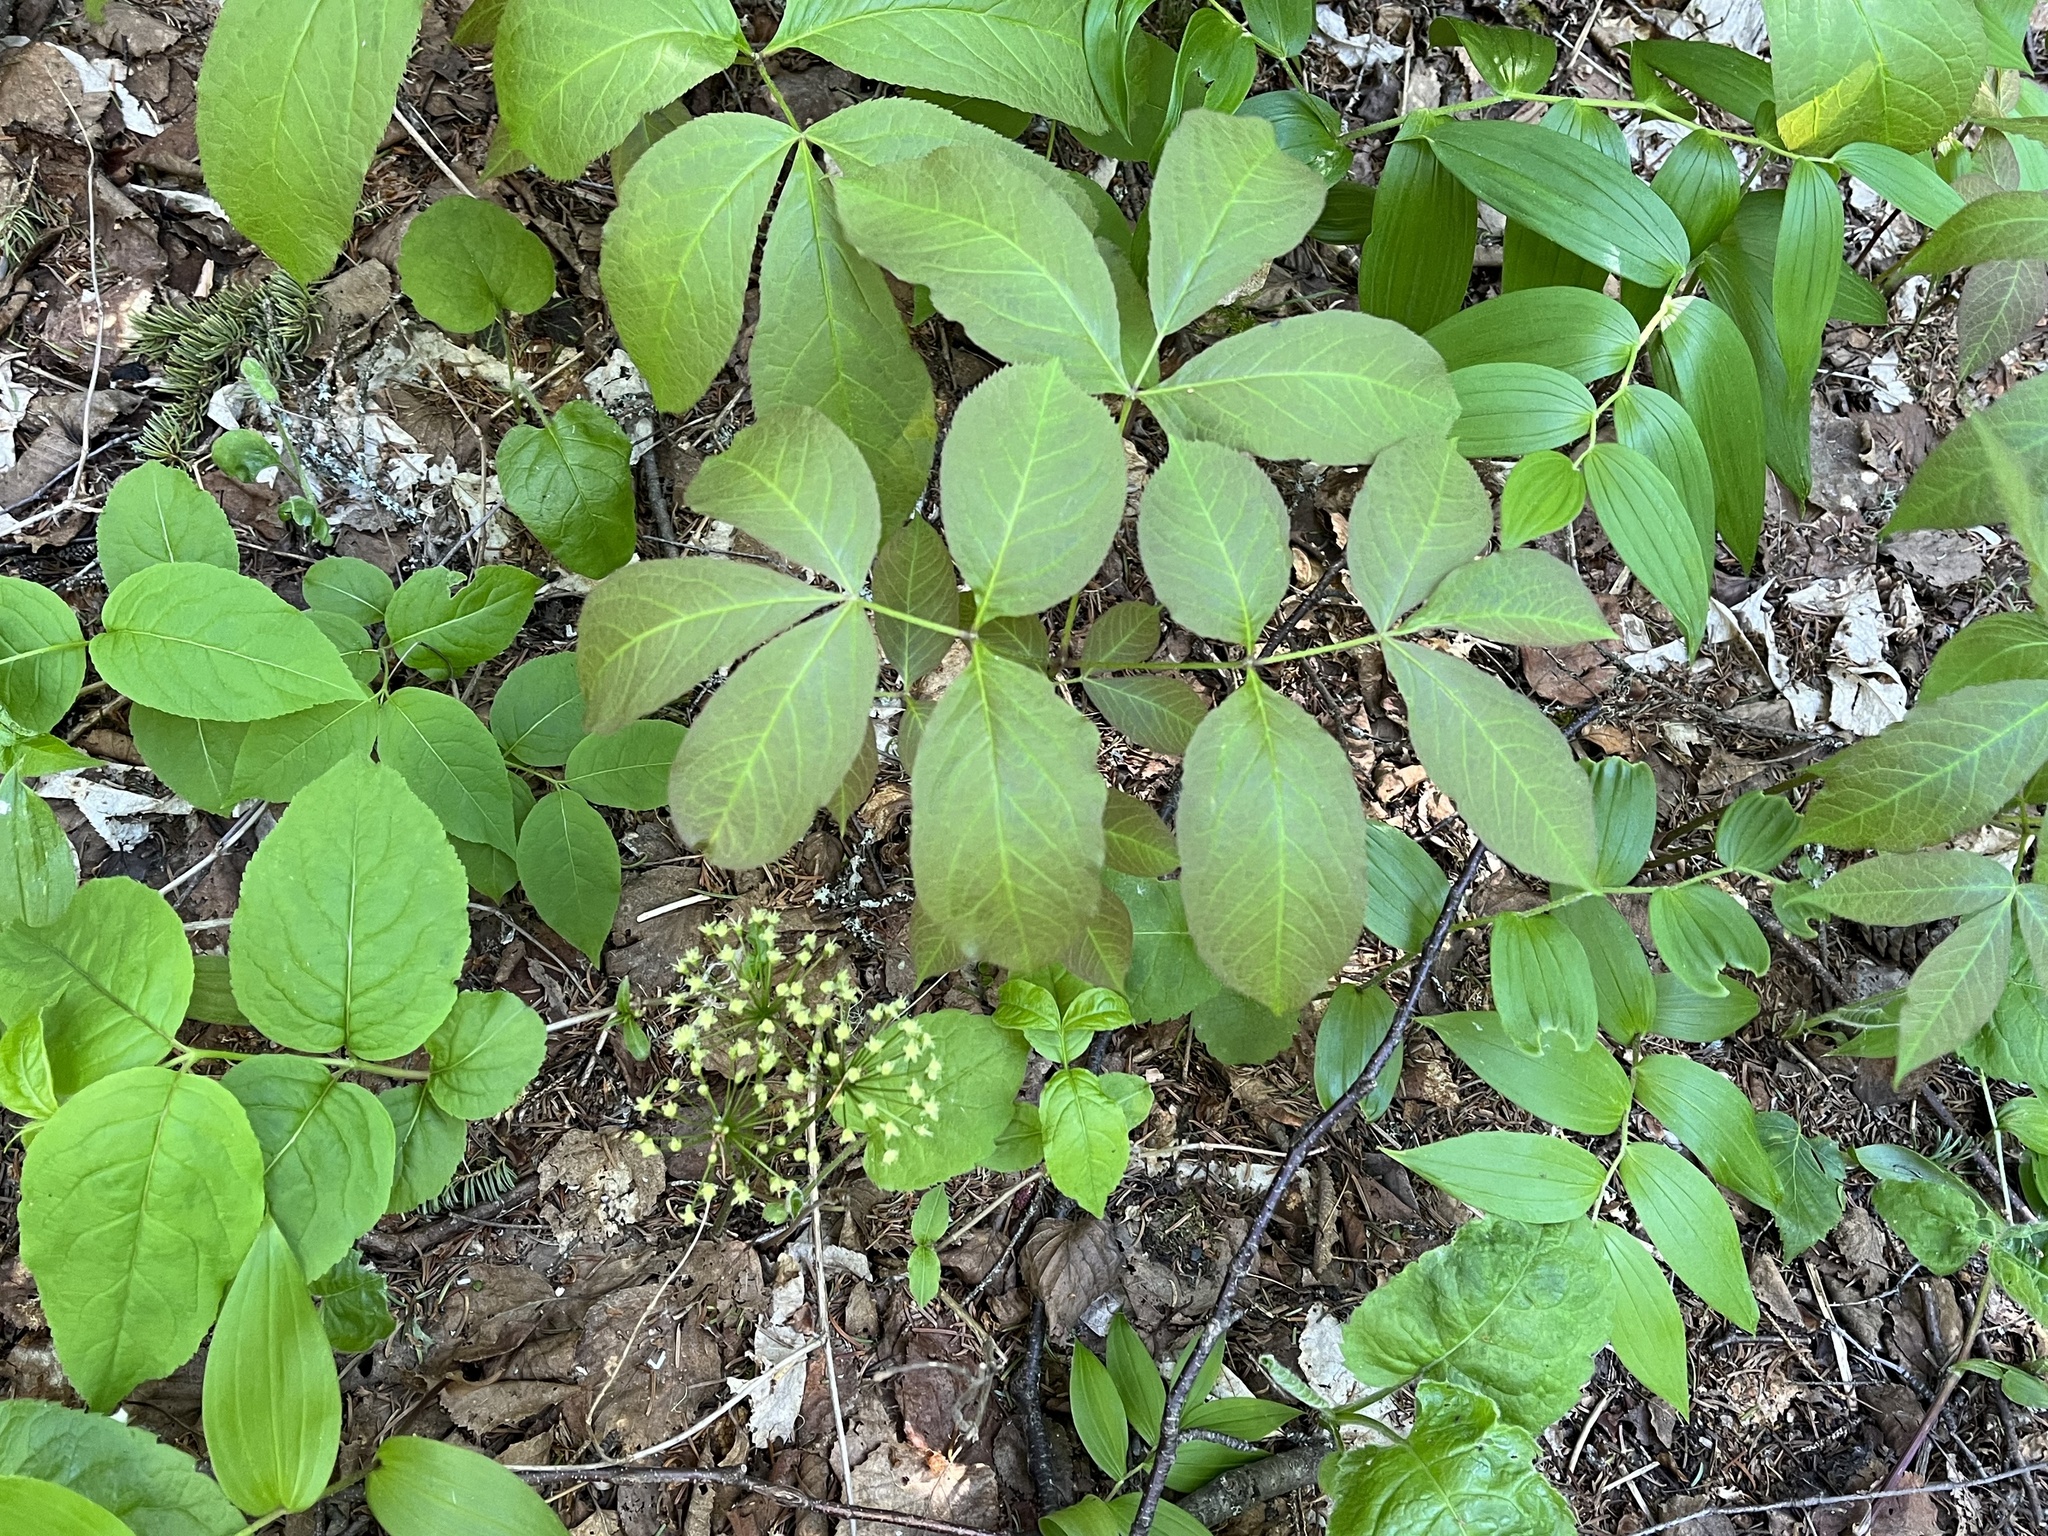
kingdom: Plantae
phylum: Tracheophyta
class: Magnoliopsida
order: Apiales
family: Araliaceae
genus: Aralia
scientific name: Aralia nudicaulis
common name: Wild sarsaparilla
